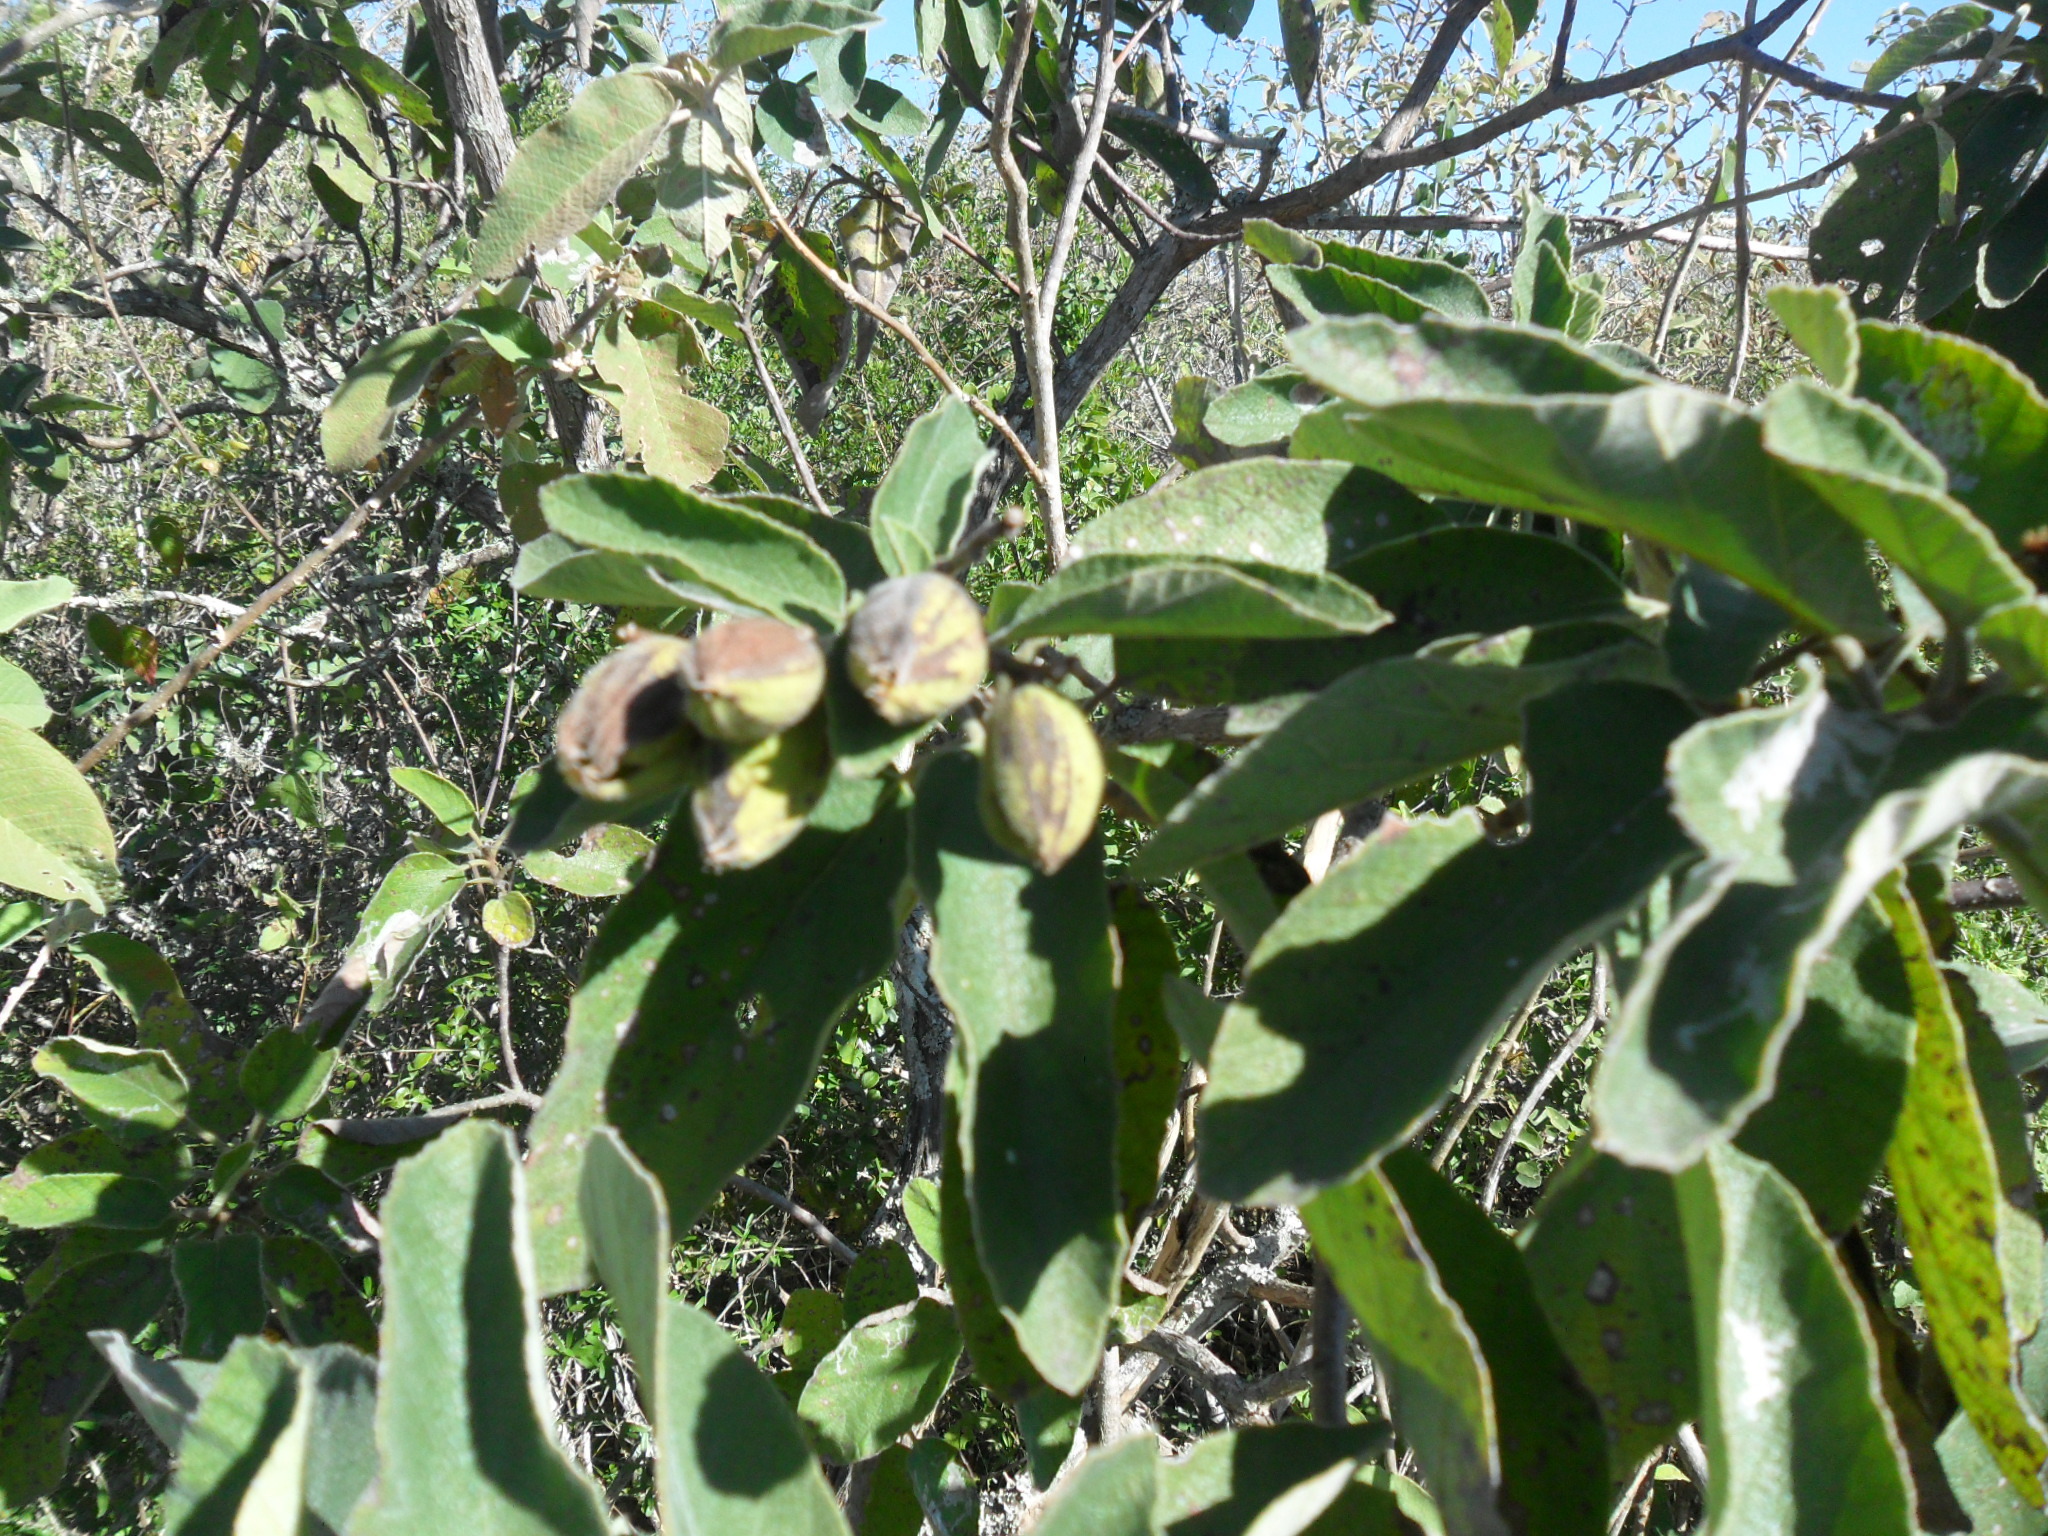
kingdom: Plantae
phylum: Tracheophyta
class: Magnoliopsida
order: Boraginales
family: Cordiaceae
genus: Cordia
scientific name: Cordia boissieri
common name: Mexican-olive
